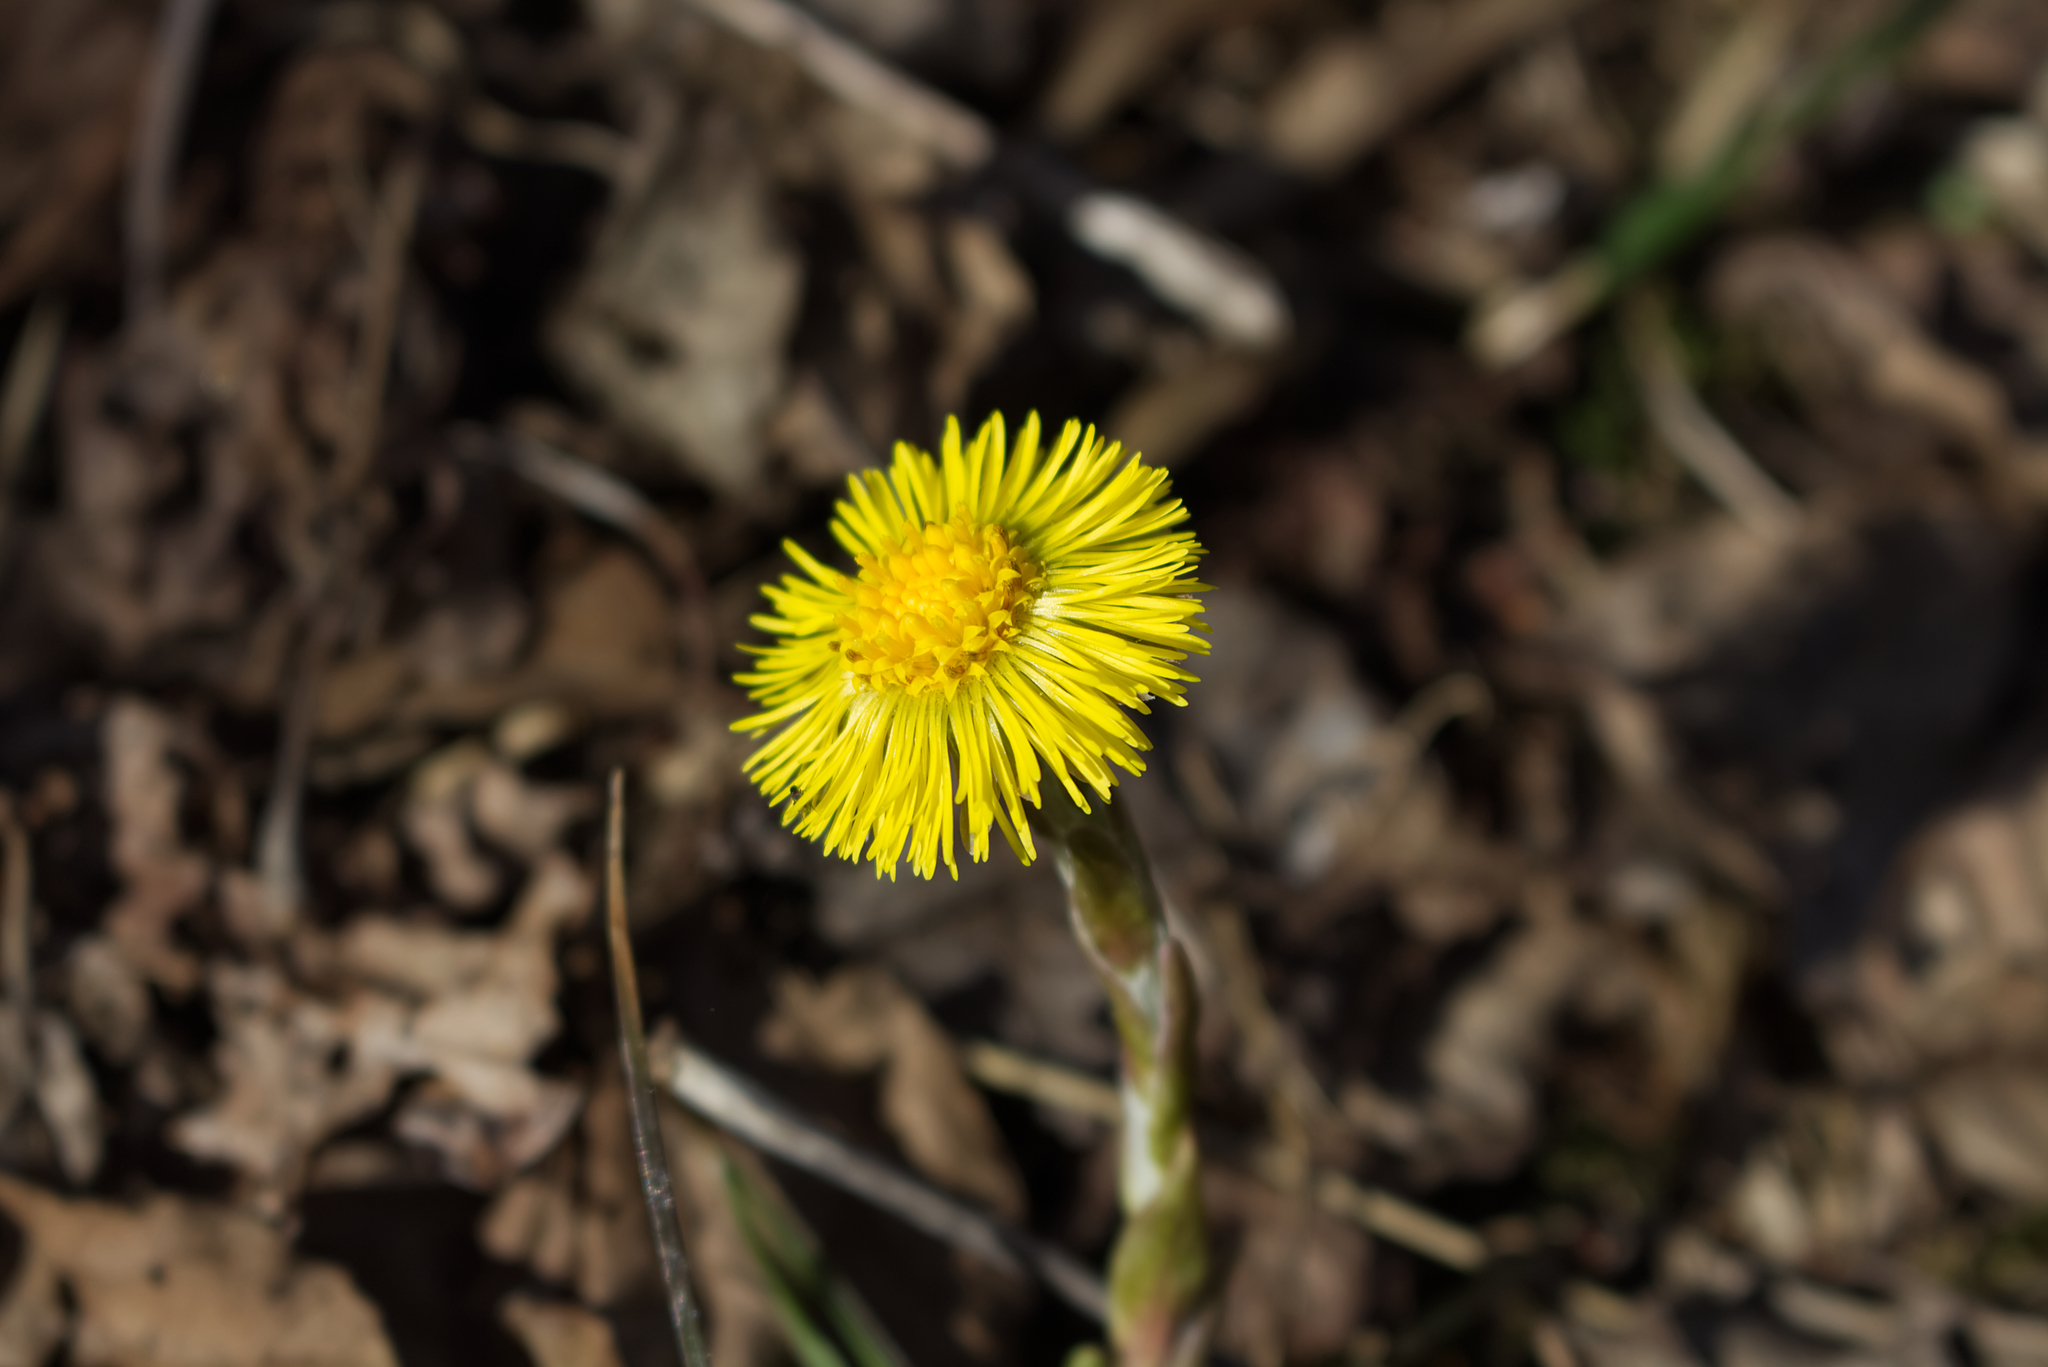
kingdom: Plantae
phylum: Tracheophyta
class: Magnoliopsida
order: Asterales
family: Asteraceae
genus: Tussilago
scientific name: Tussilago farfara
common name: Coltsfoot
